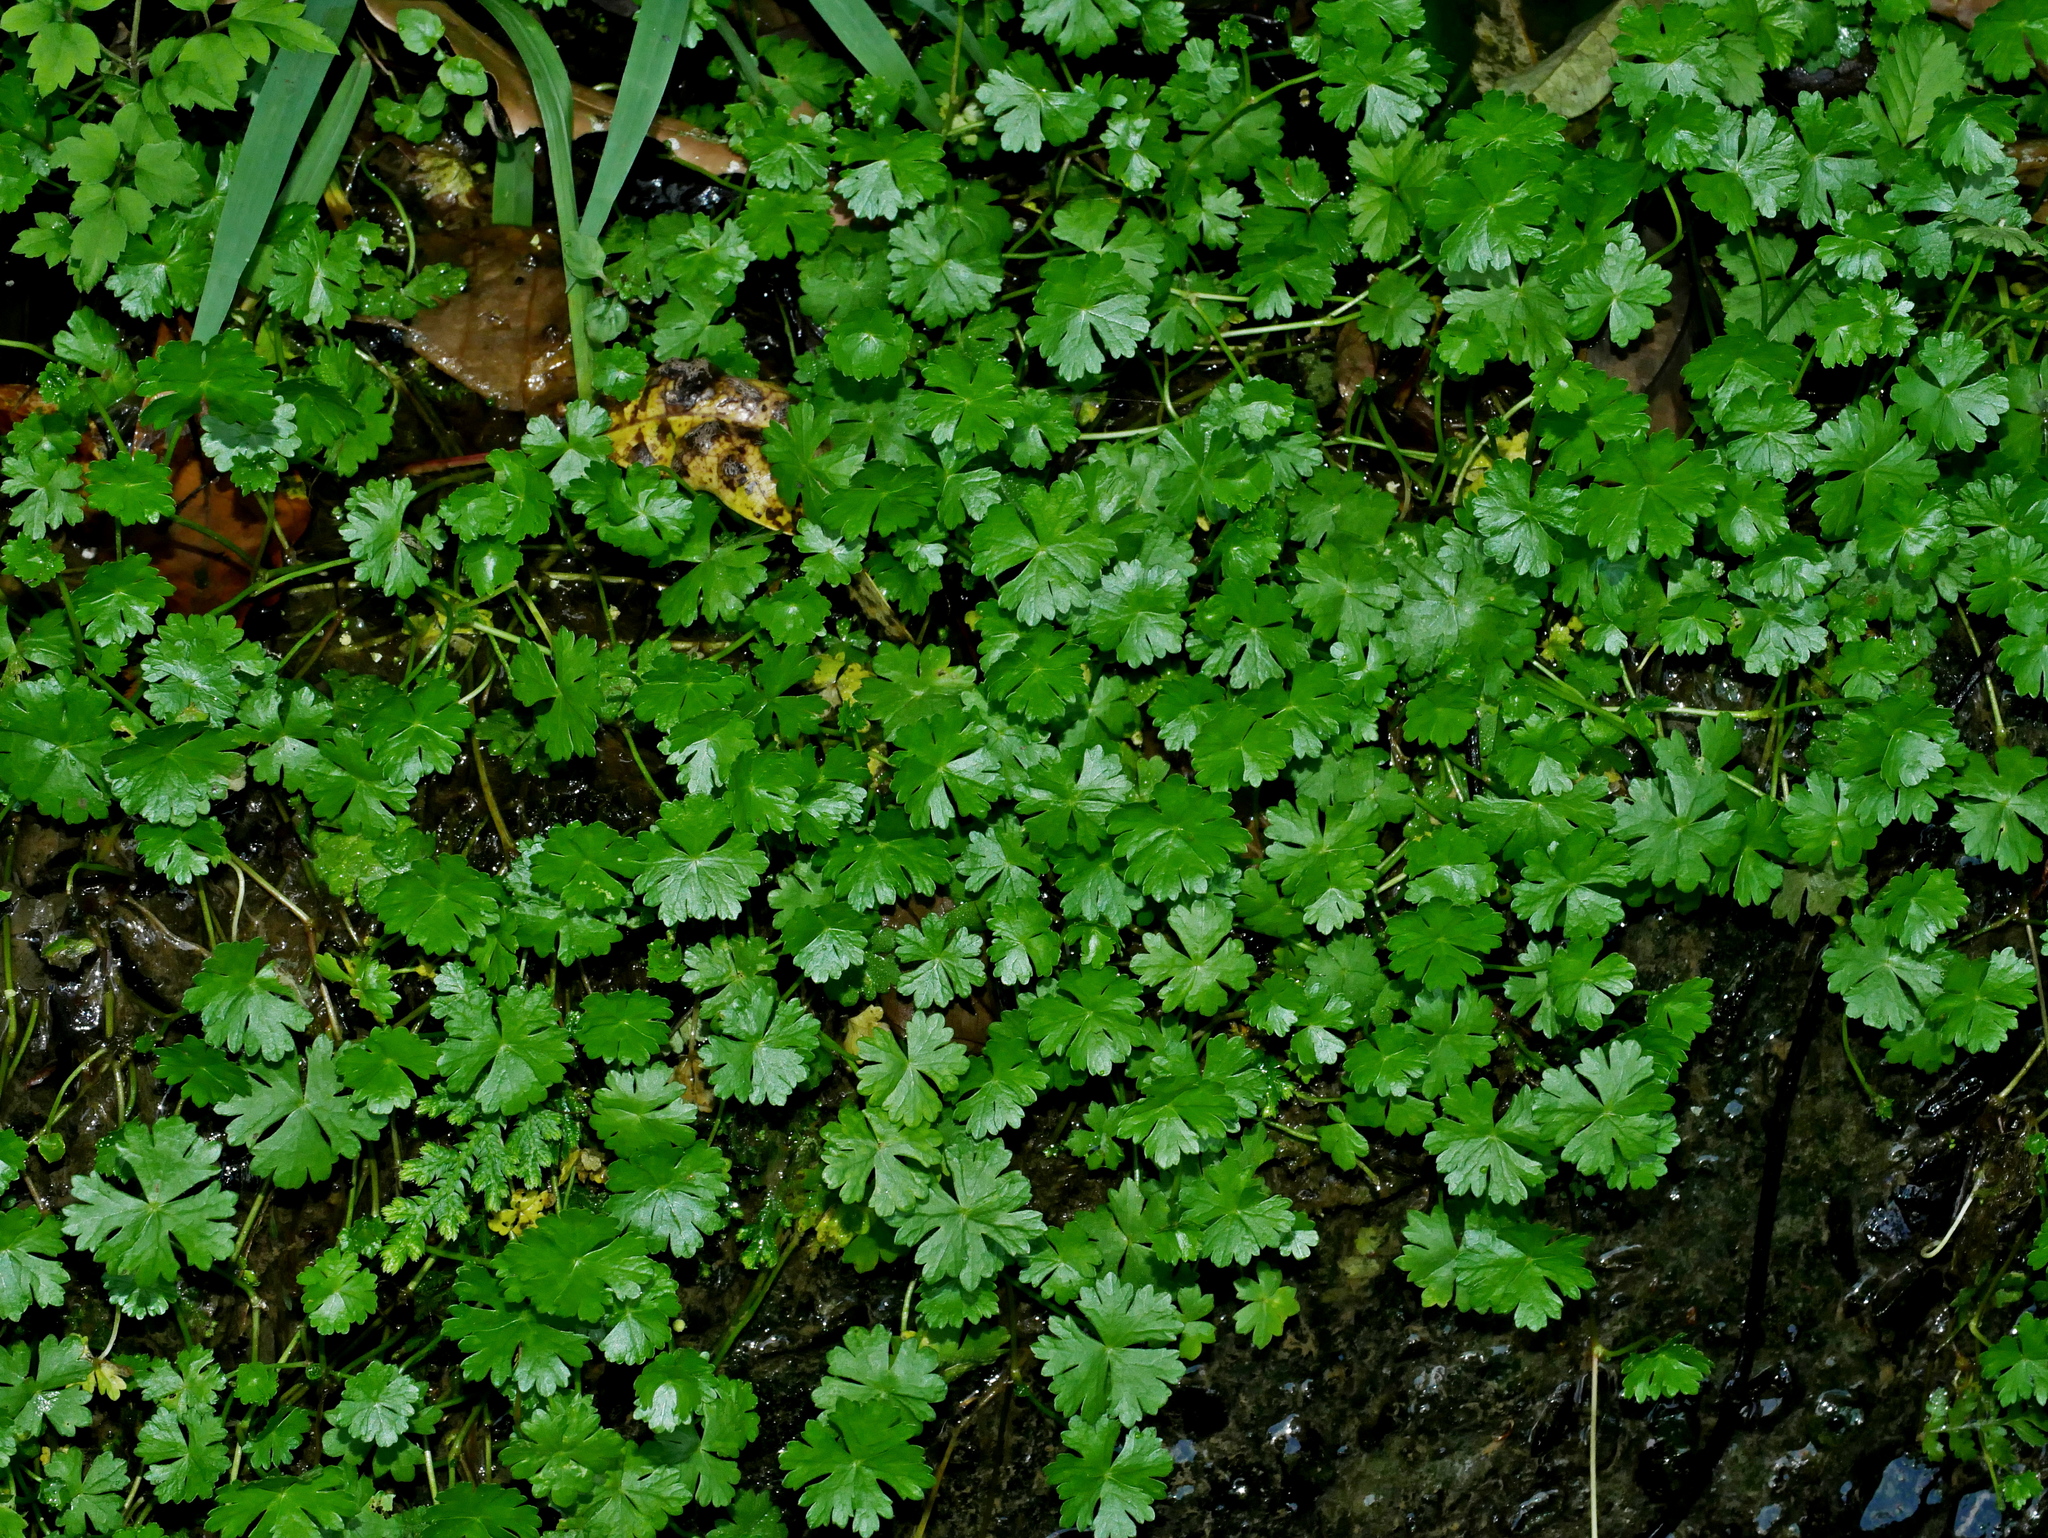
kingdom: Plantae
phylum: Tracheophyta
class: Magnoliopsida
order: Apiales
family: Araliaceae
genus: Hydrocotyle
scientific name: Hydrocotyle batrachium
